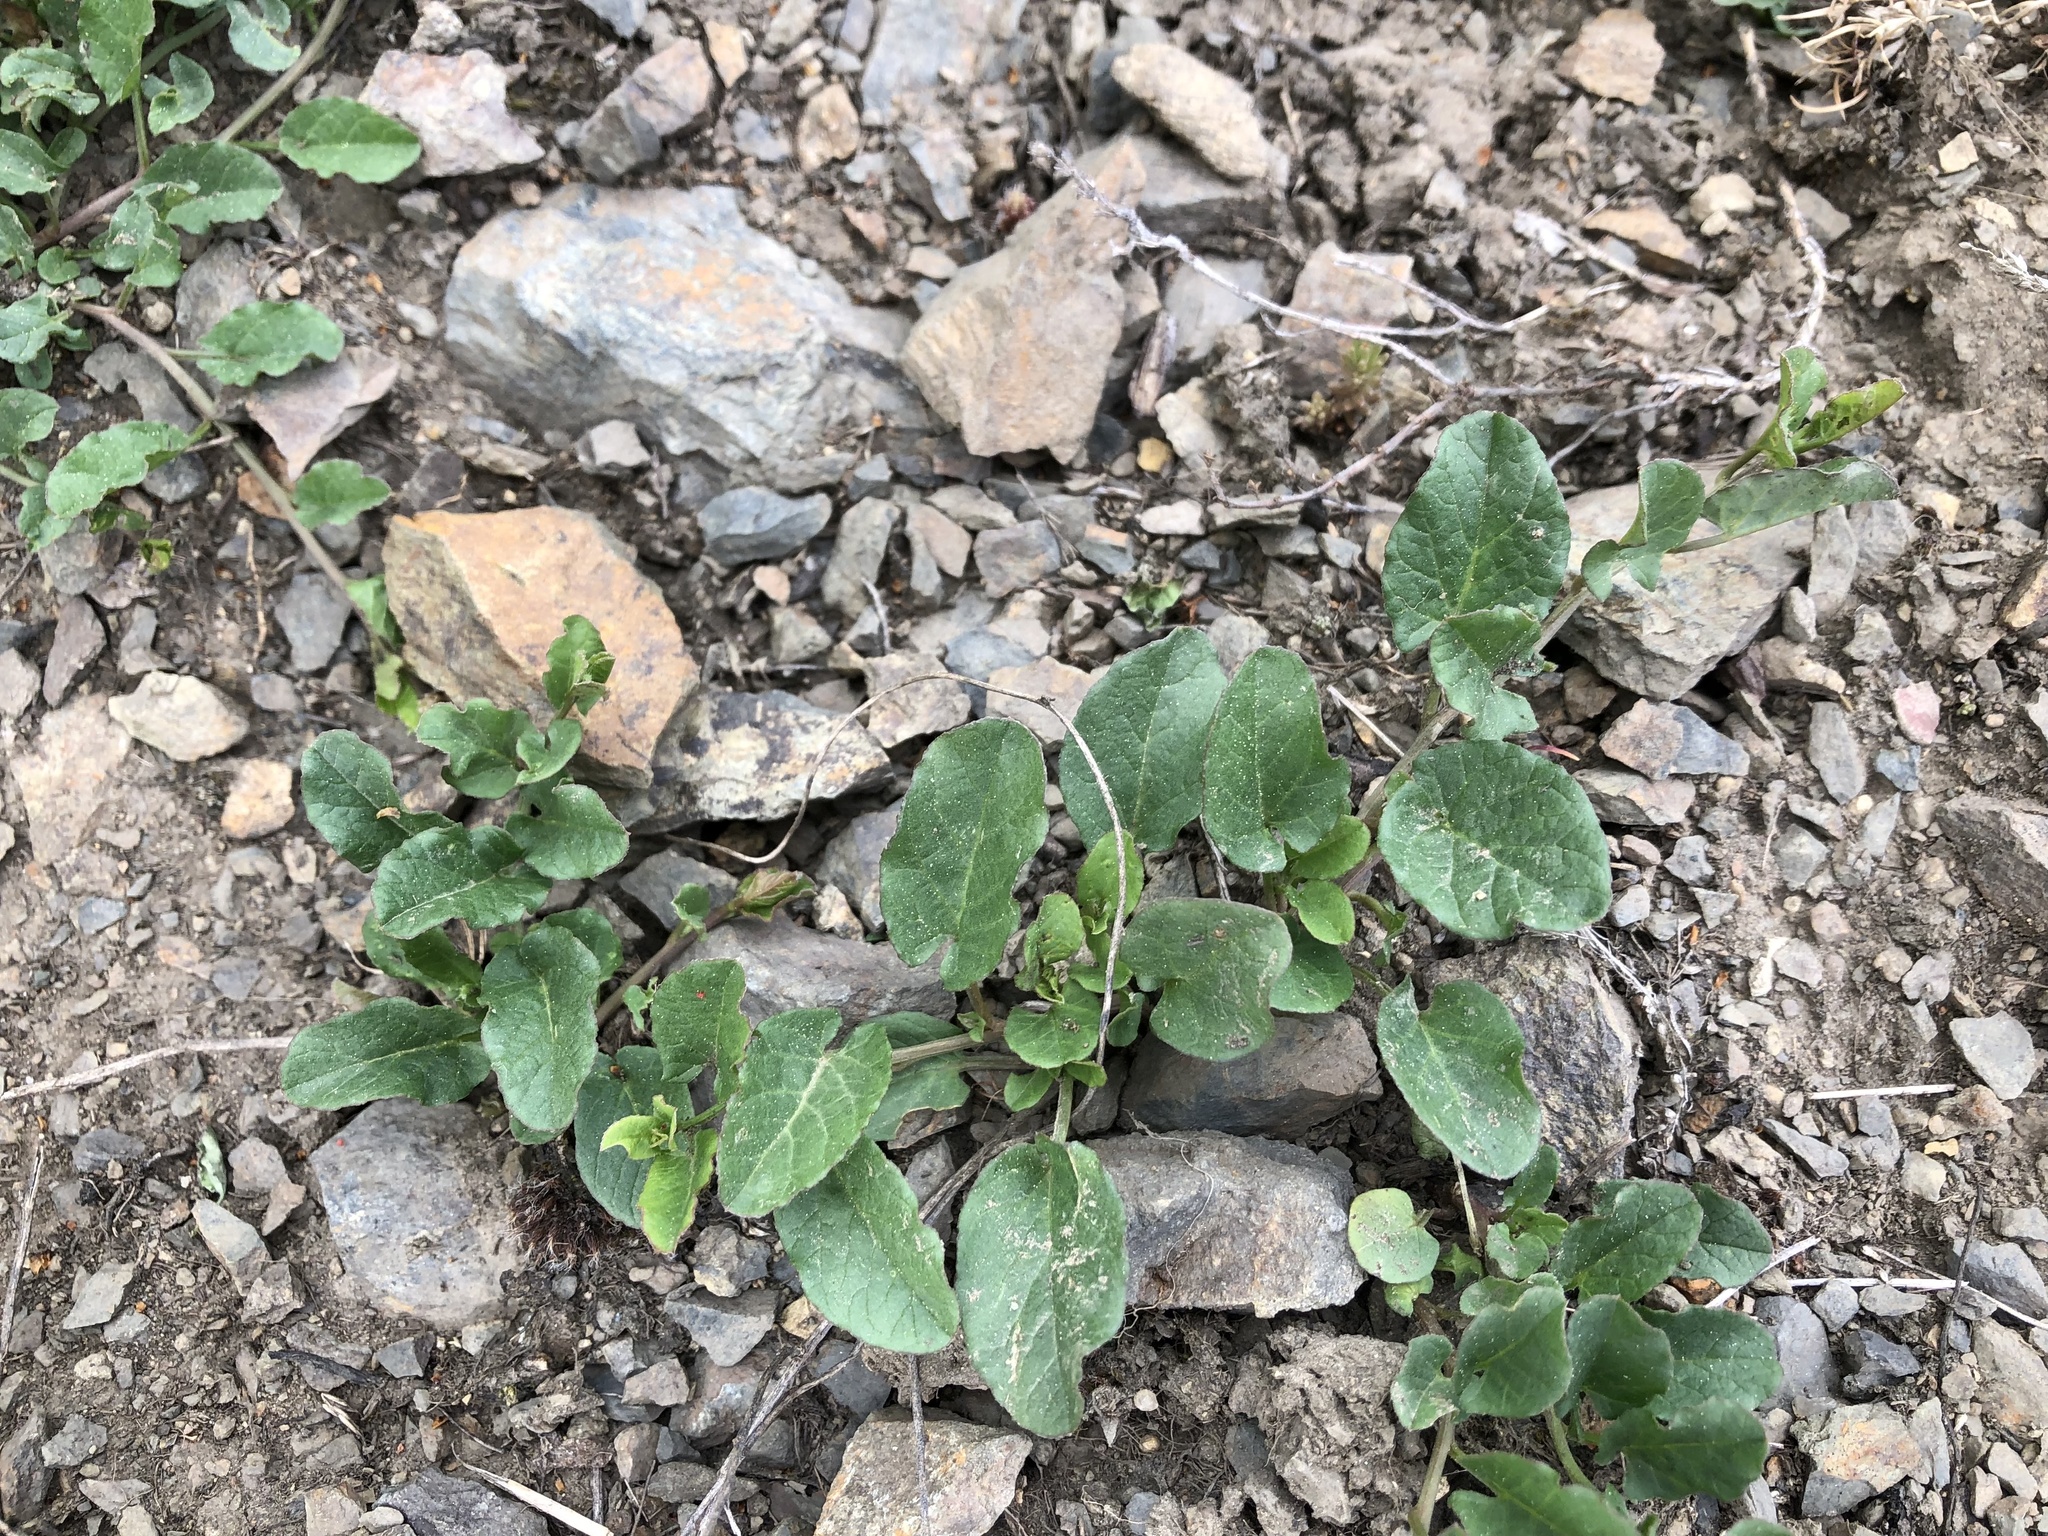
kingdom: Plantae
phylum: Tracheophyta
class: Magnoliopsida
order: Solanales
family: Convolvulaceae
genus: Convolvulus
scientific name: Convolvulus arvensis
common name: Field bindweed
